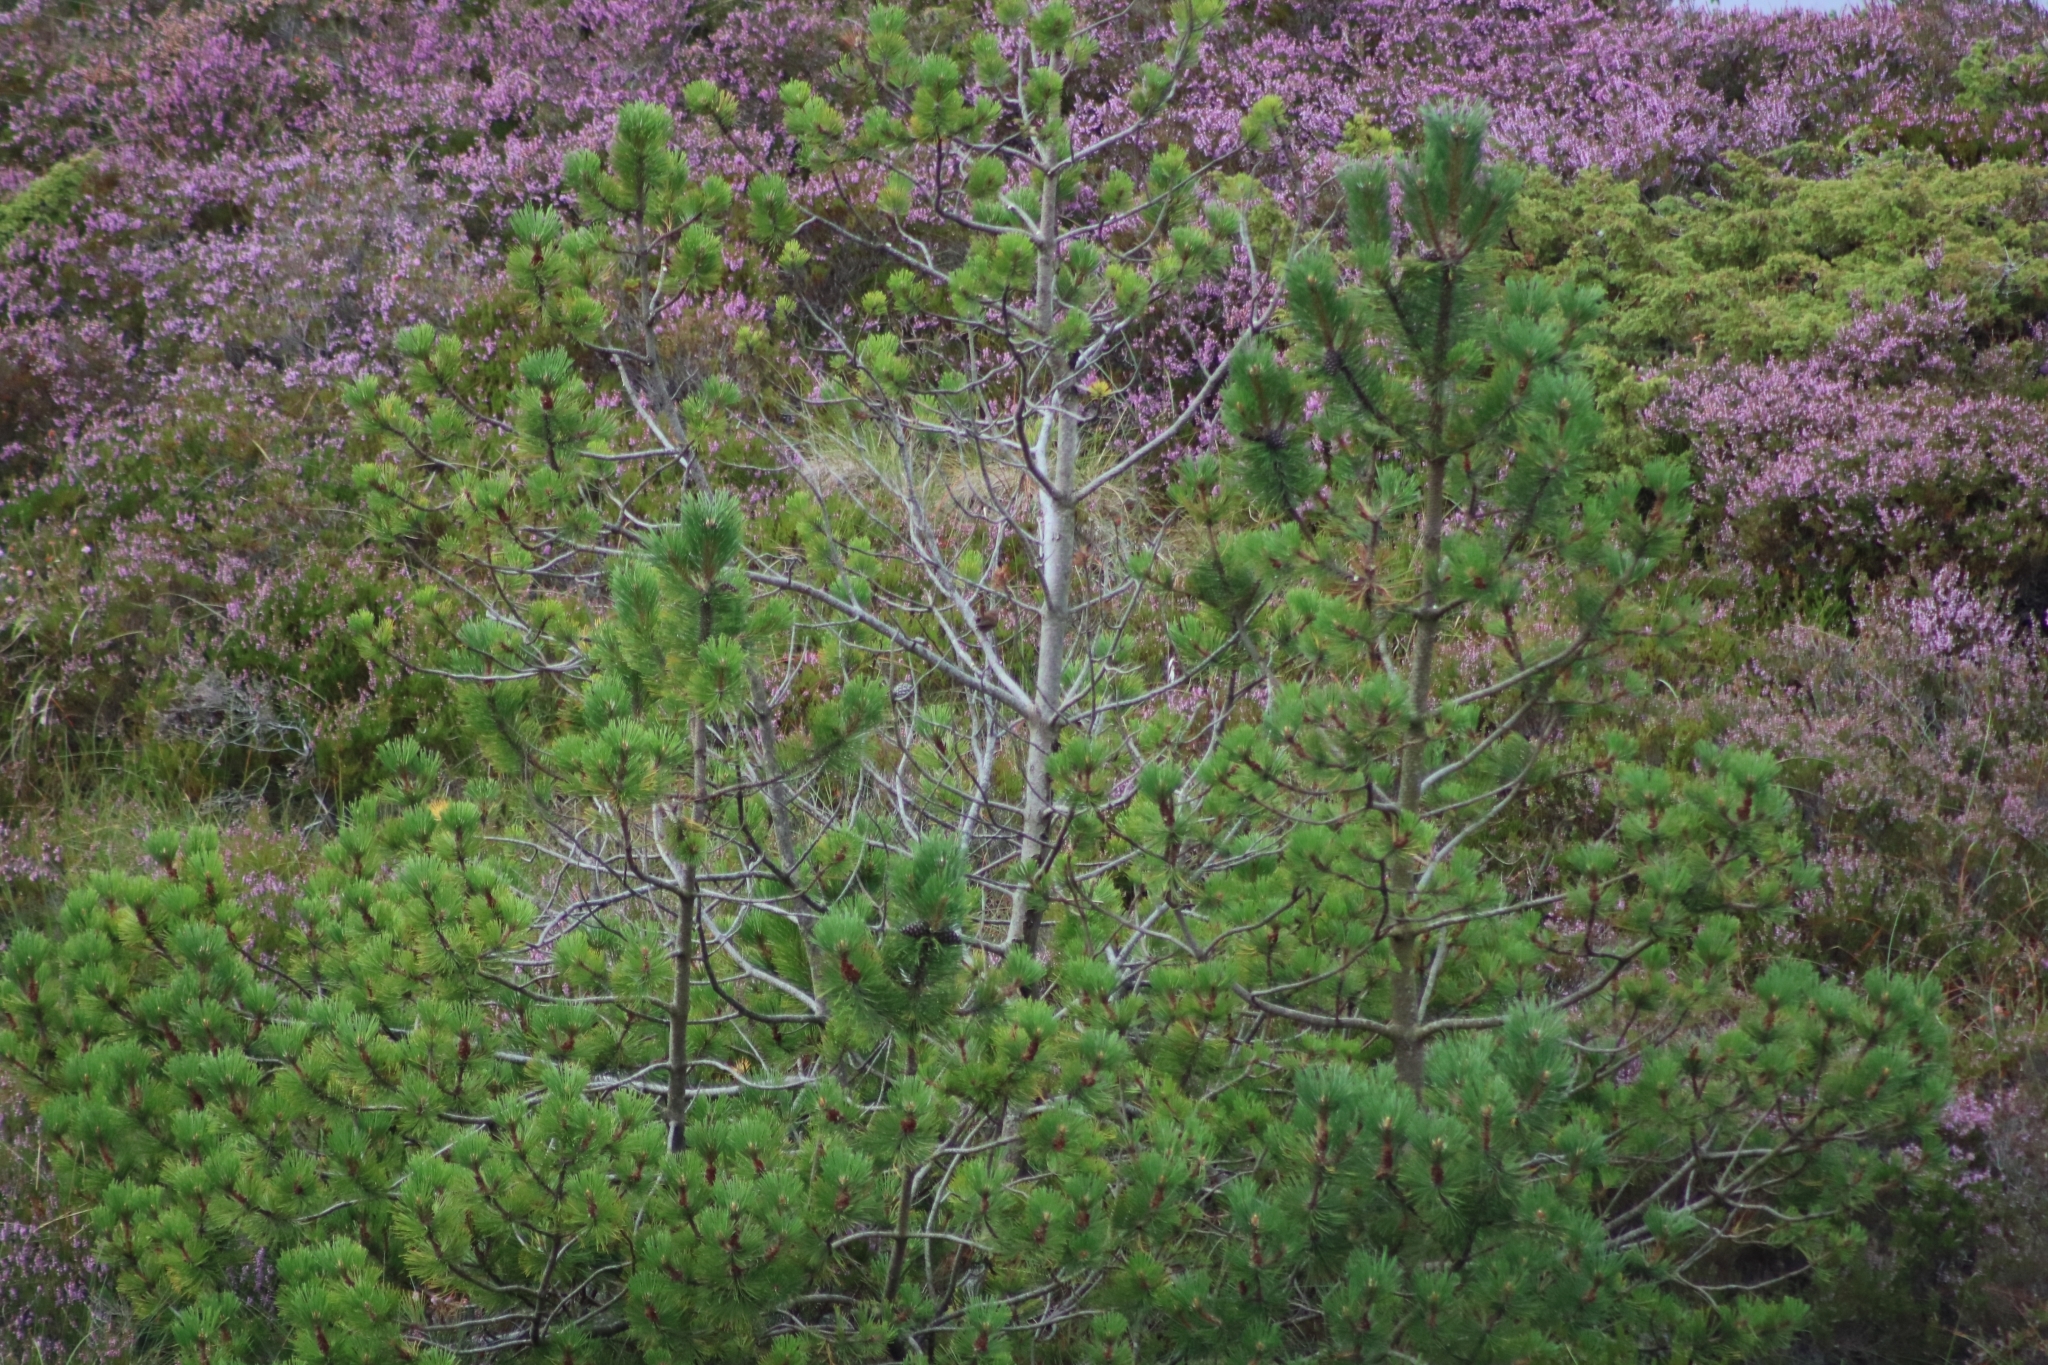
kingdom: Animalia
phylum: Chordata
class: Aves
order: Passeriformes
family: Troglodytidae
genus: Troglodytes
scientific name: Troglodytes troglodytes
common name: Eurasian wren
